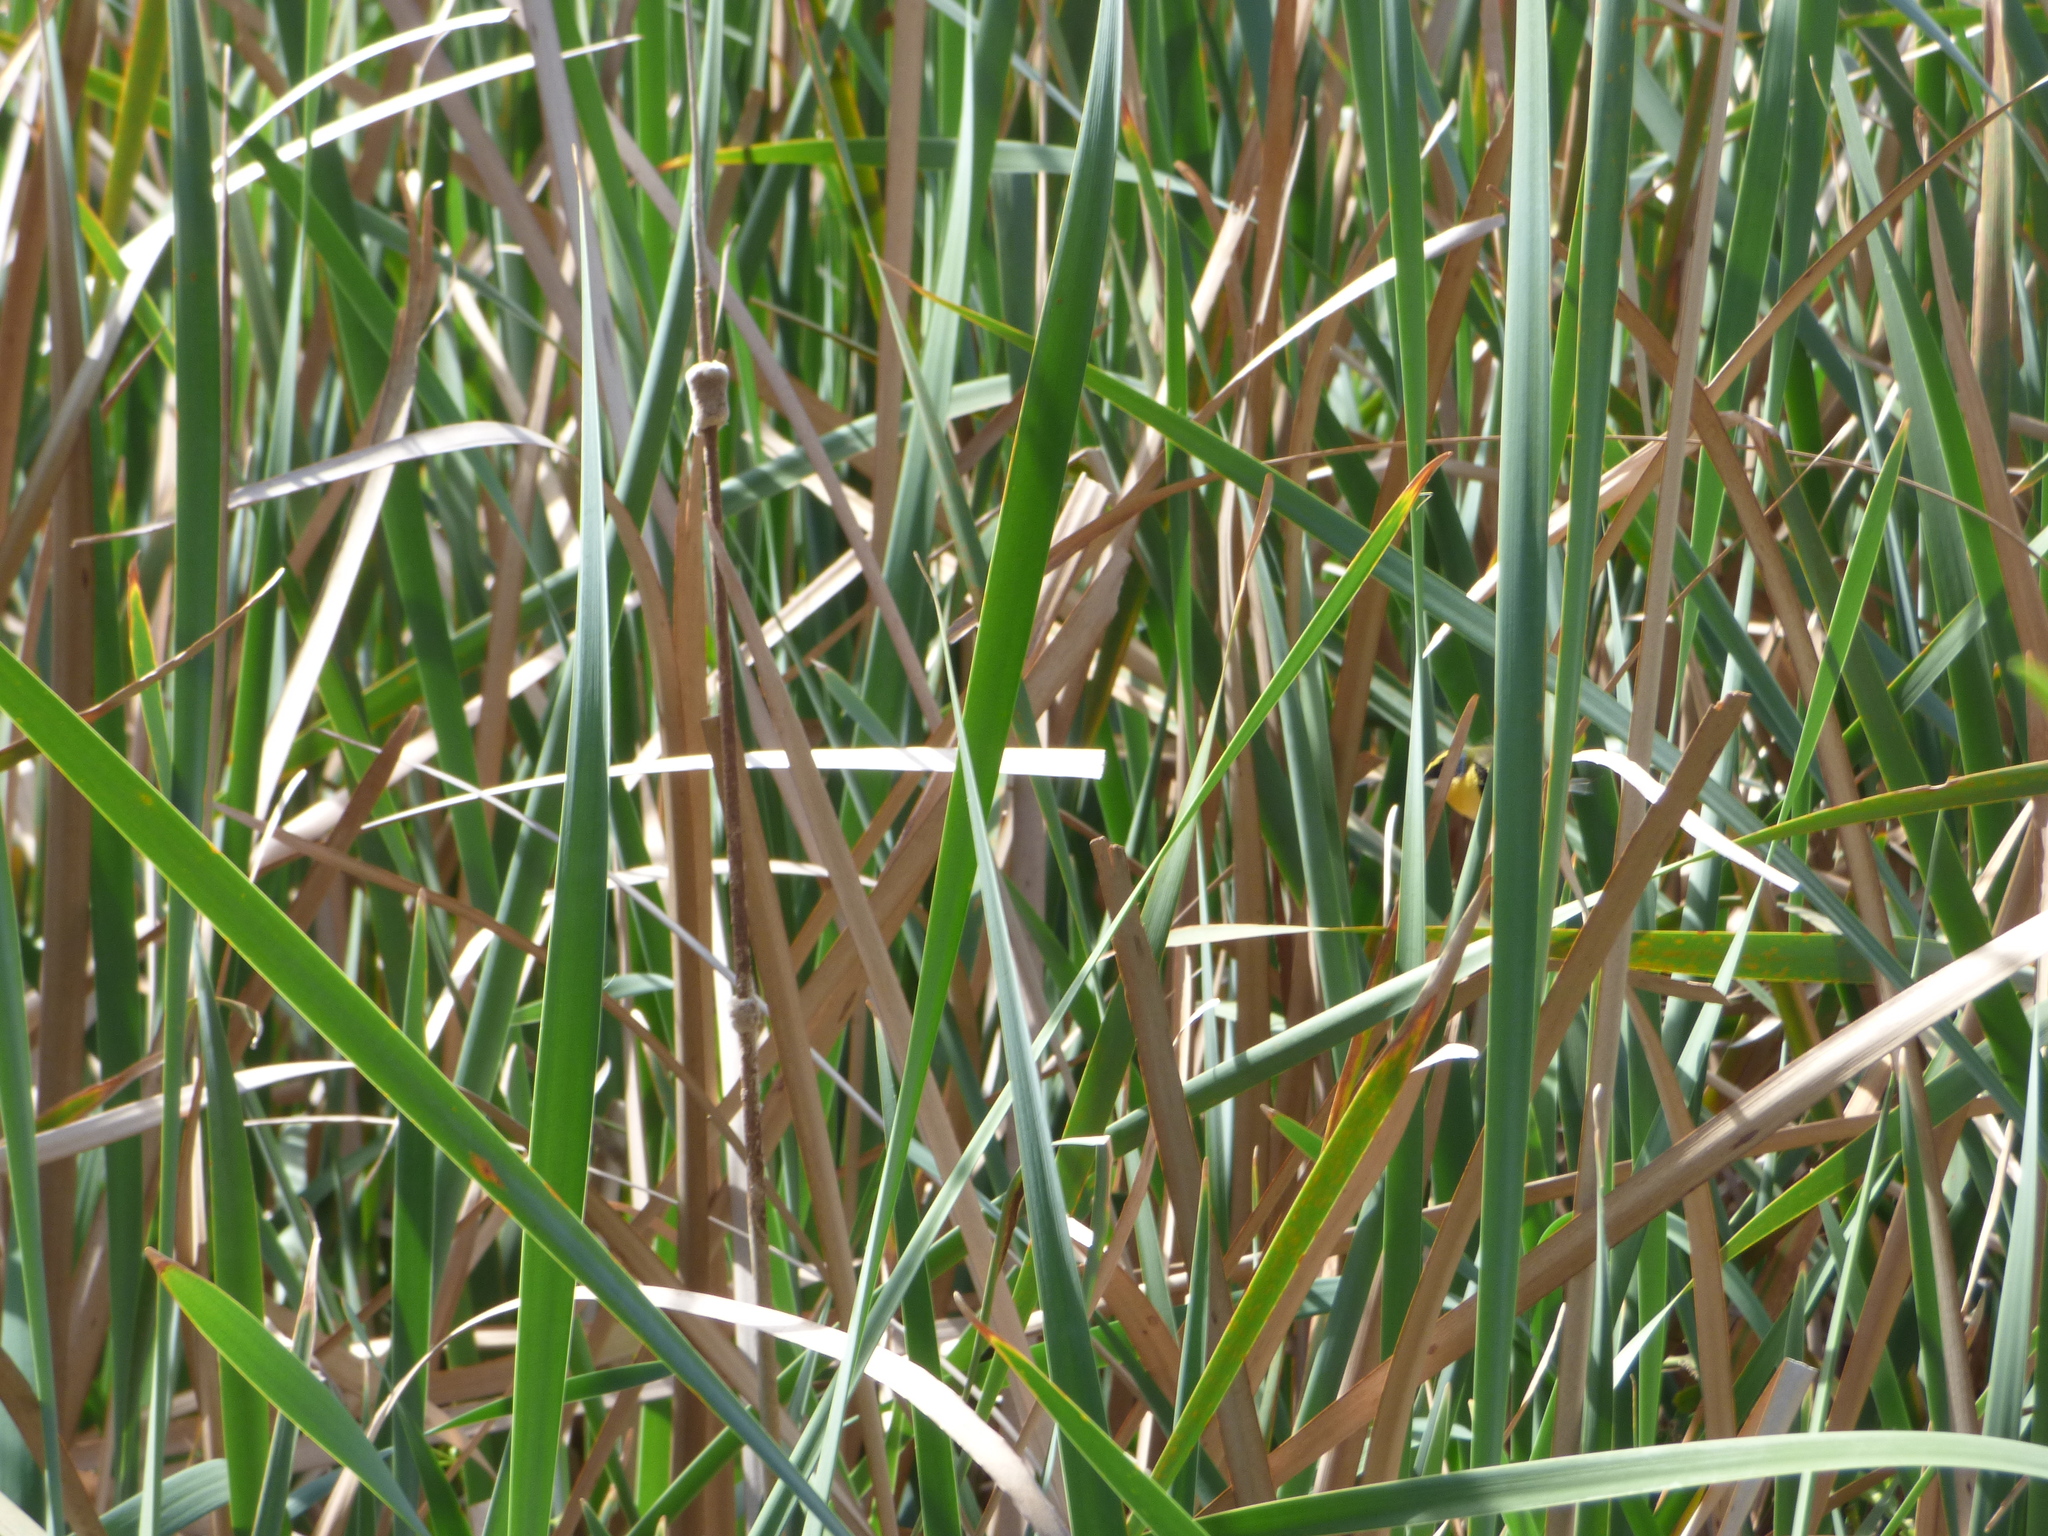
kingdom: Animalia
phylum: Chordata
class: Aves
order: Passeriformes
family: Tyrannidae
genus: Tachuris
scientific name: Tachuris rubrigastra
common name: Many-colored rush tyrant
